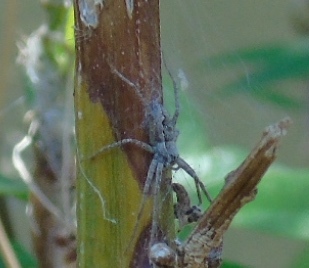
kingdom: Animalia
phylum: Arthropoda
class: Arachnida
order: Araneae
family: Pisauridae
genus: Tinus
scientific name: Tinus
